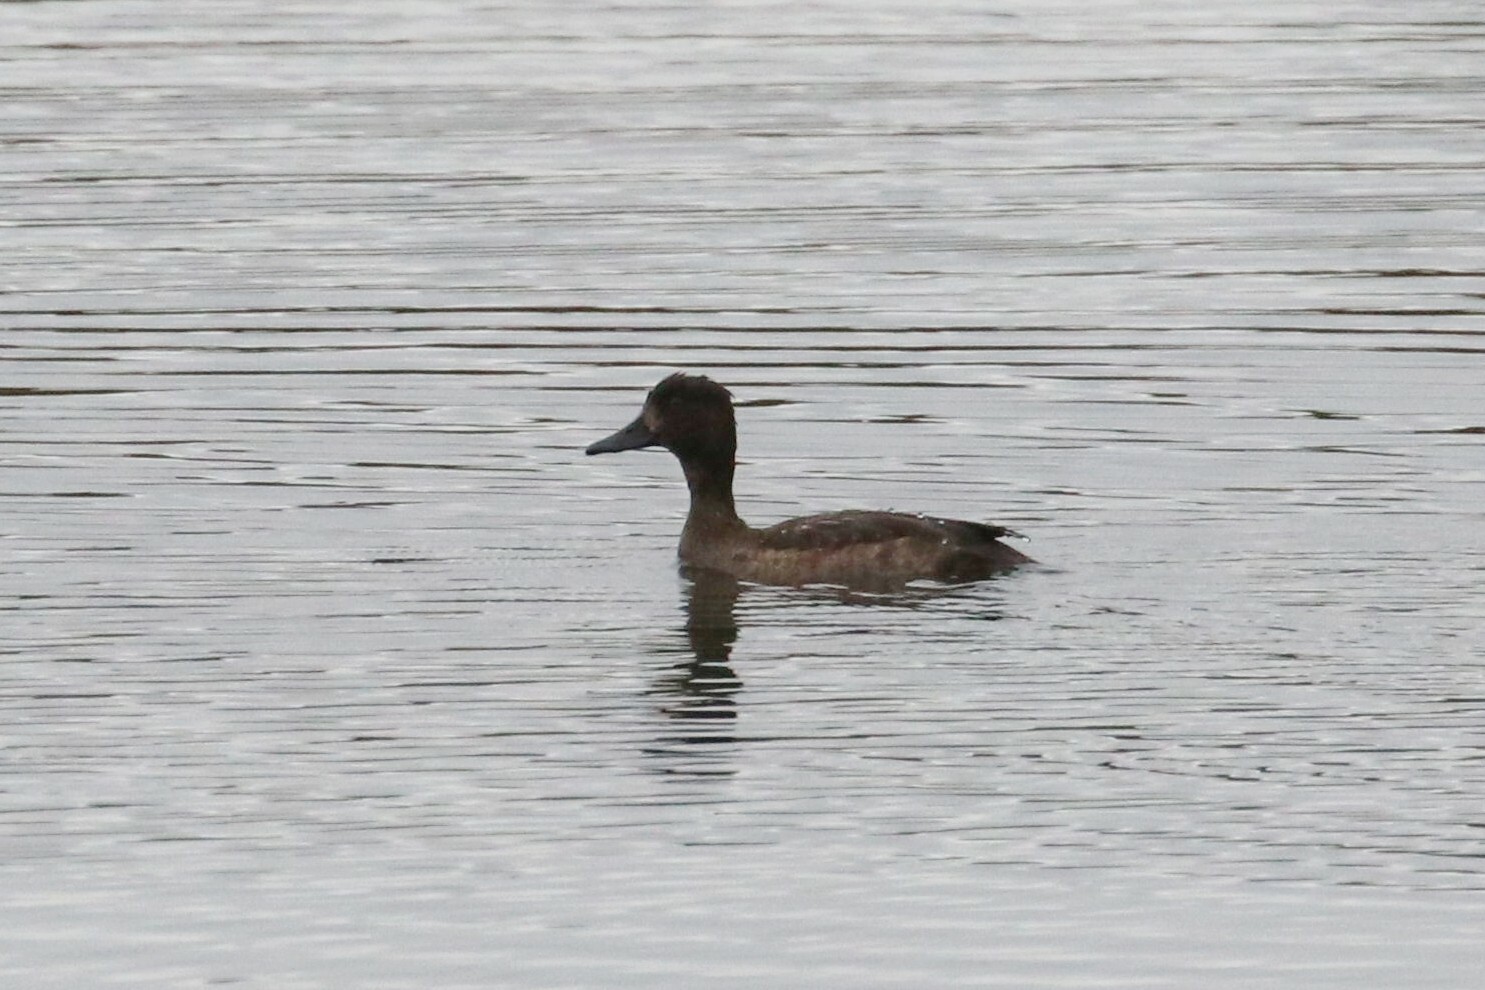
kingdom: Animalia
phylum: Chordata
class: Aves
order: Anseriformes
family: Anatidae
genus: Aythya
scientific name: Aythya fuligula
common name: Tufted duck
